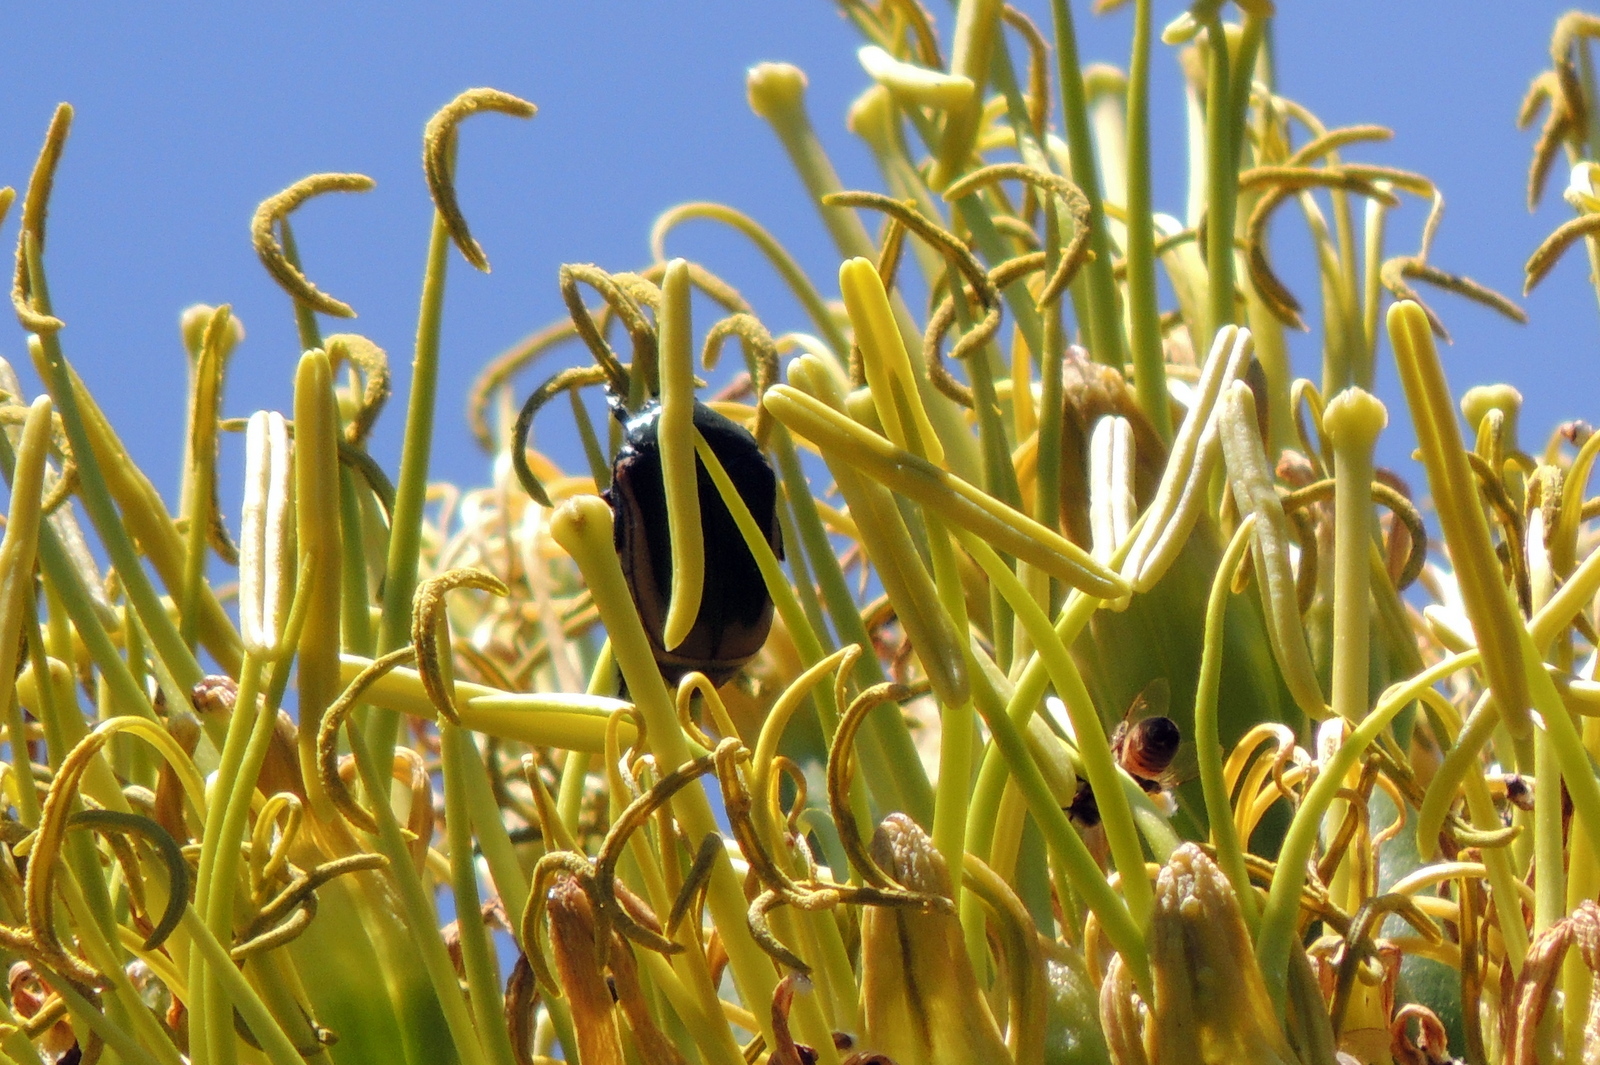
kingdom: Animalia
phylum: Arthropoda
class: Insecta
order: Coleoptera
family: Scarabaeidae
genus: Cotinis
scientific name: Cotinis mutabilis
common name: Figeater beetle
